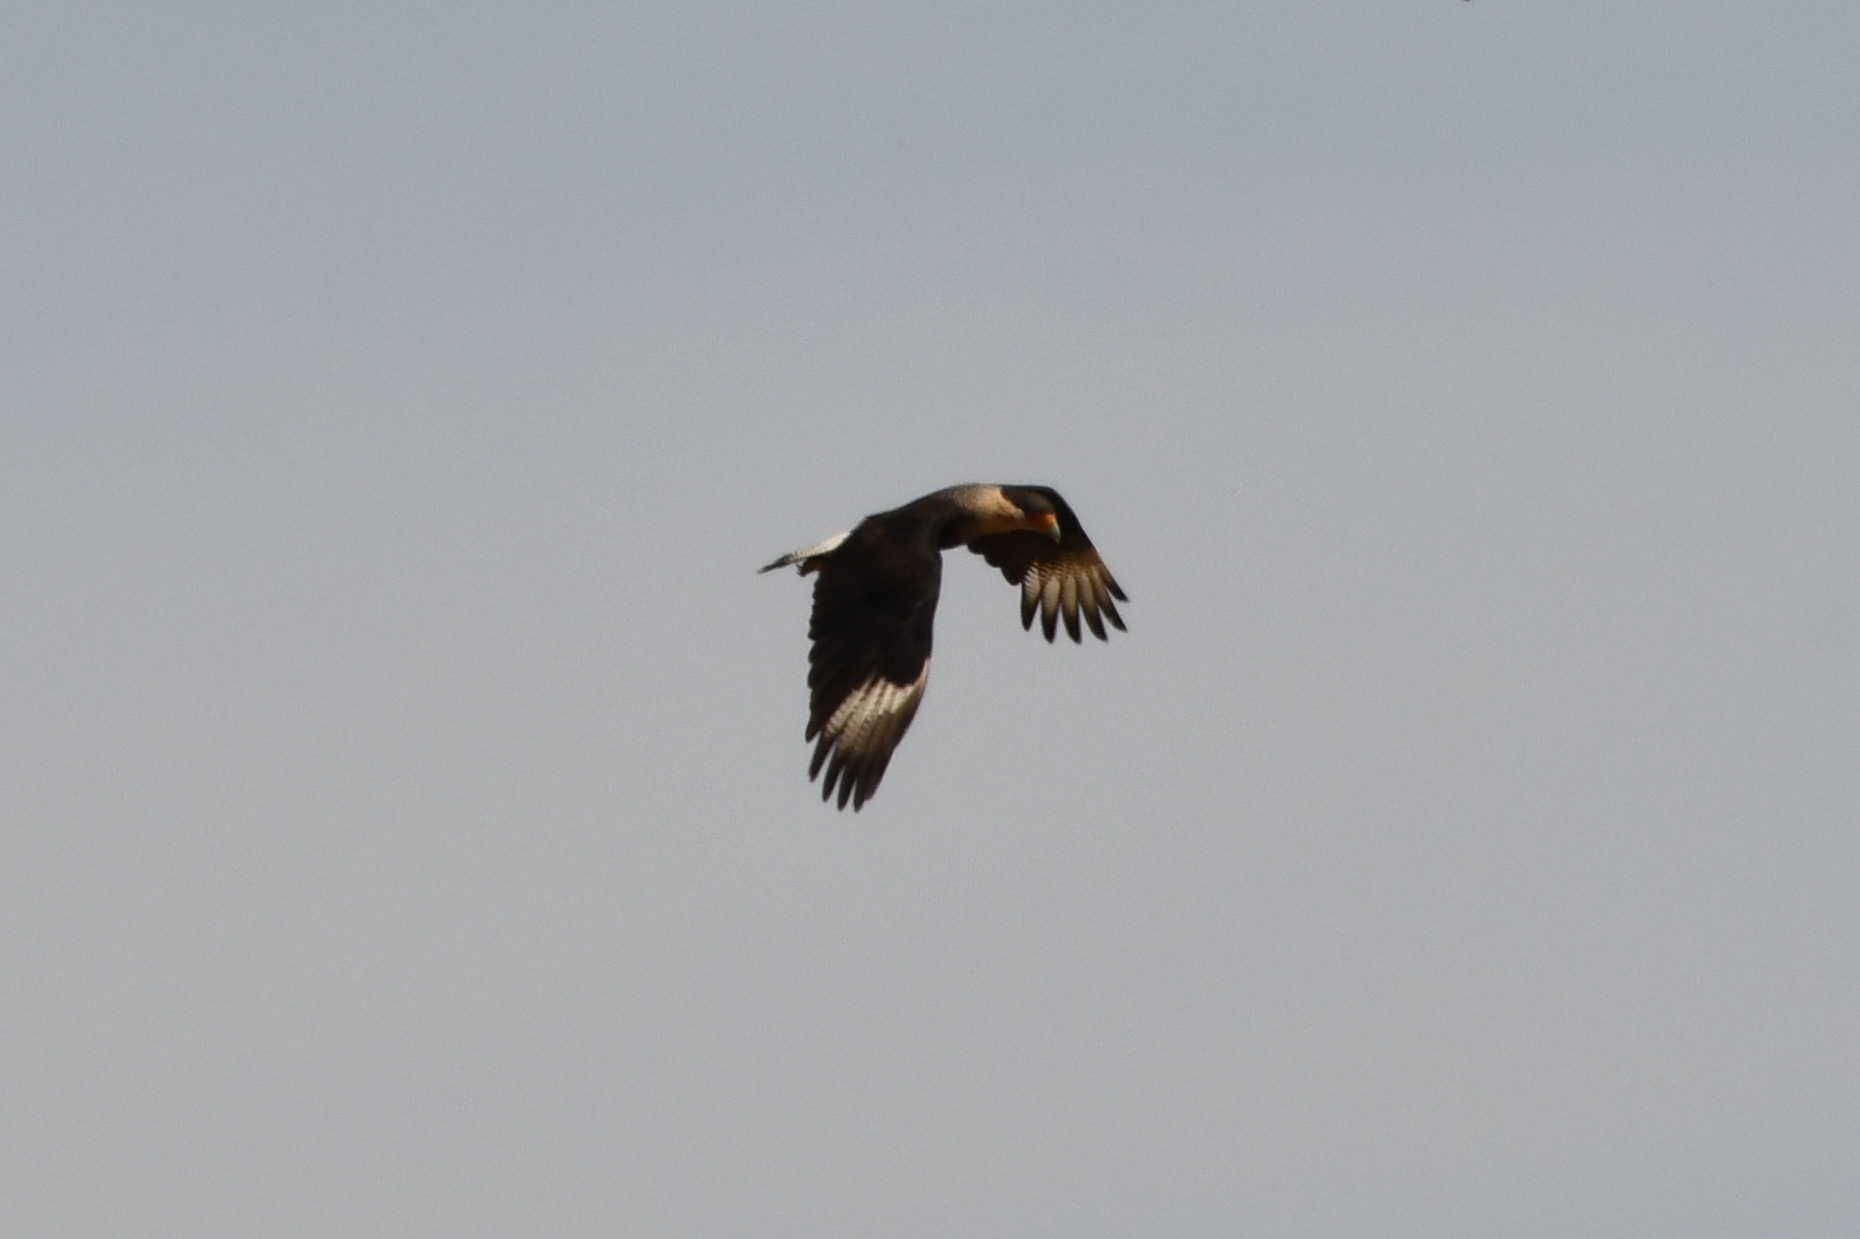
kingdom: Animalia
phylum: Chordata
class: Aves
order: Falconiformes
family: Falconidae
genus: Caracara
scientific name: Caracara plancus
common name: Southern caracara
